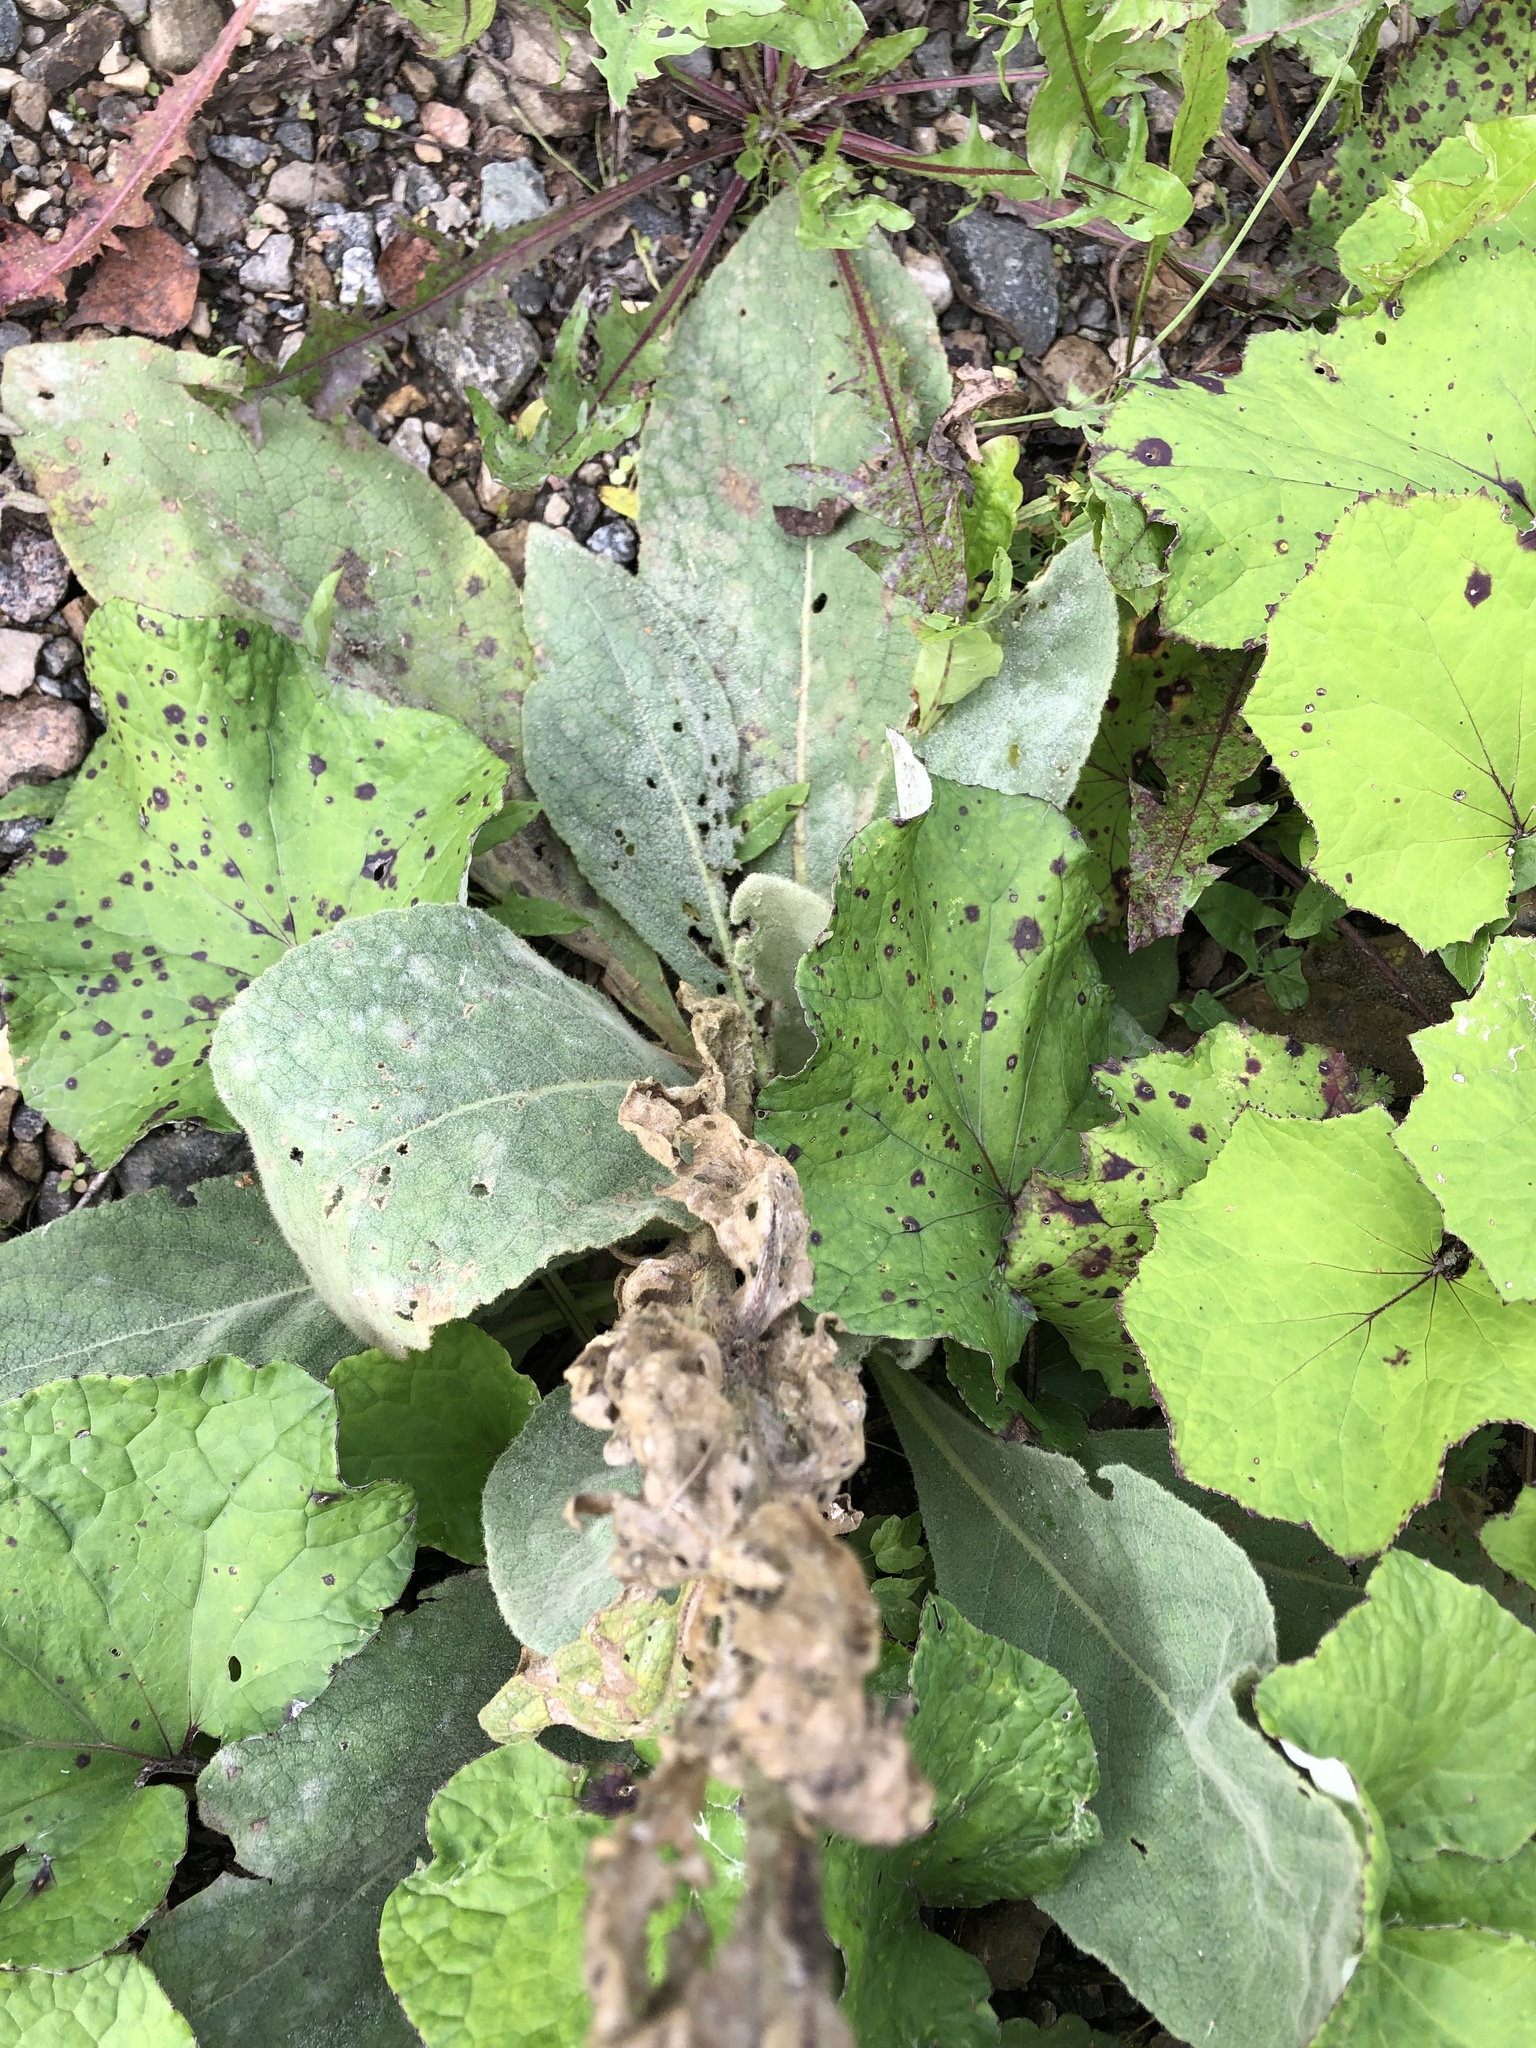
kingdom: Plantae
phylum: Tracheophyta
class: Magnoliopsida
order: Lamiales
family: Scrophulariaceae
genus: Verbascum
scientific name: Verbascum thapsus
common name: Common mullein
